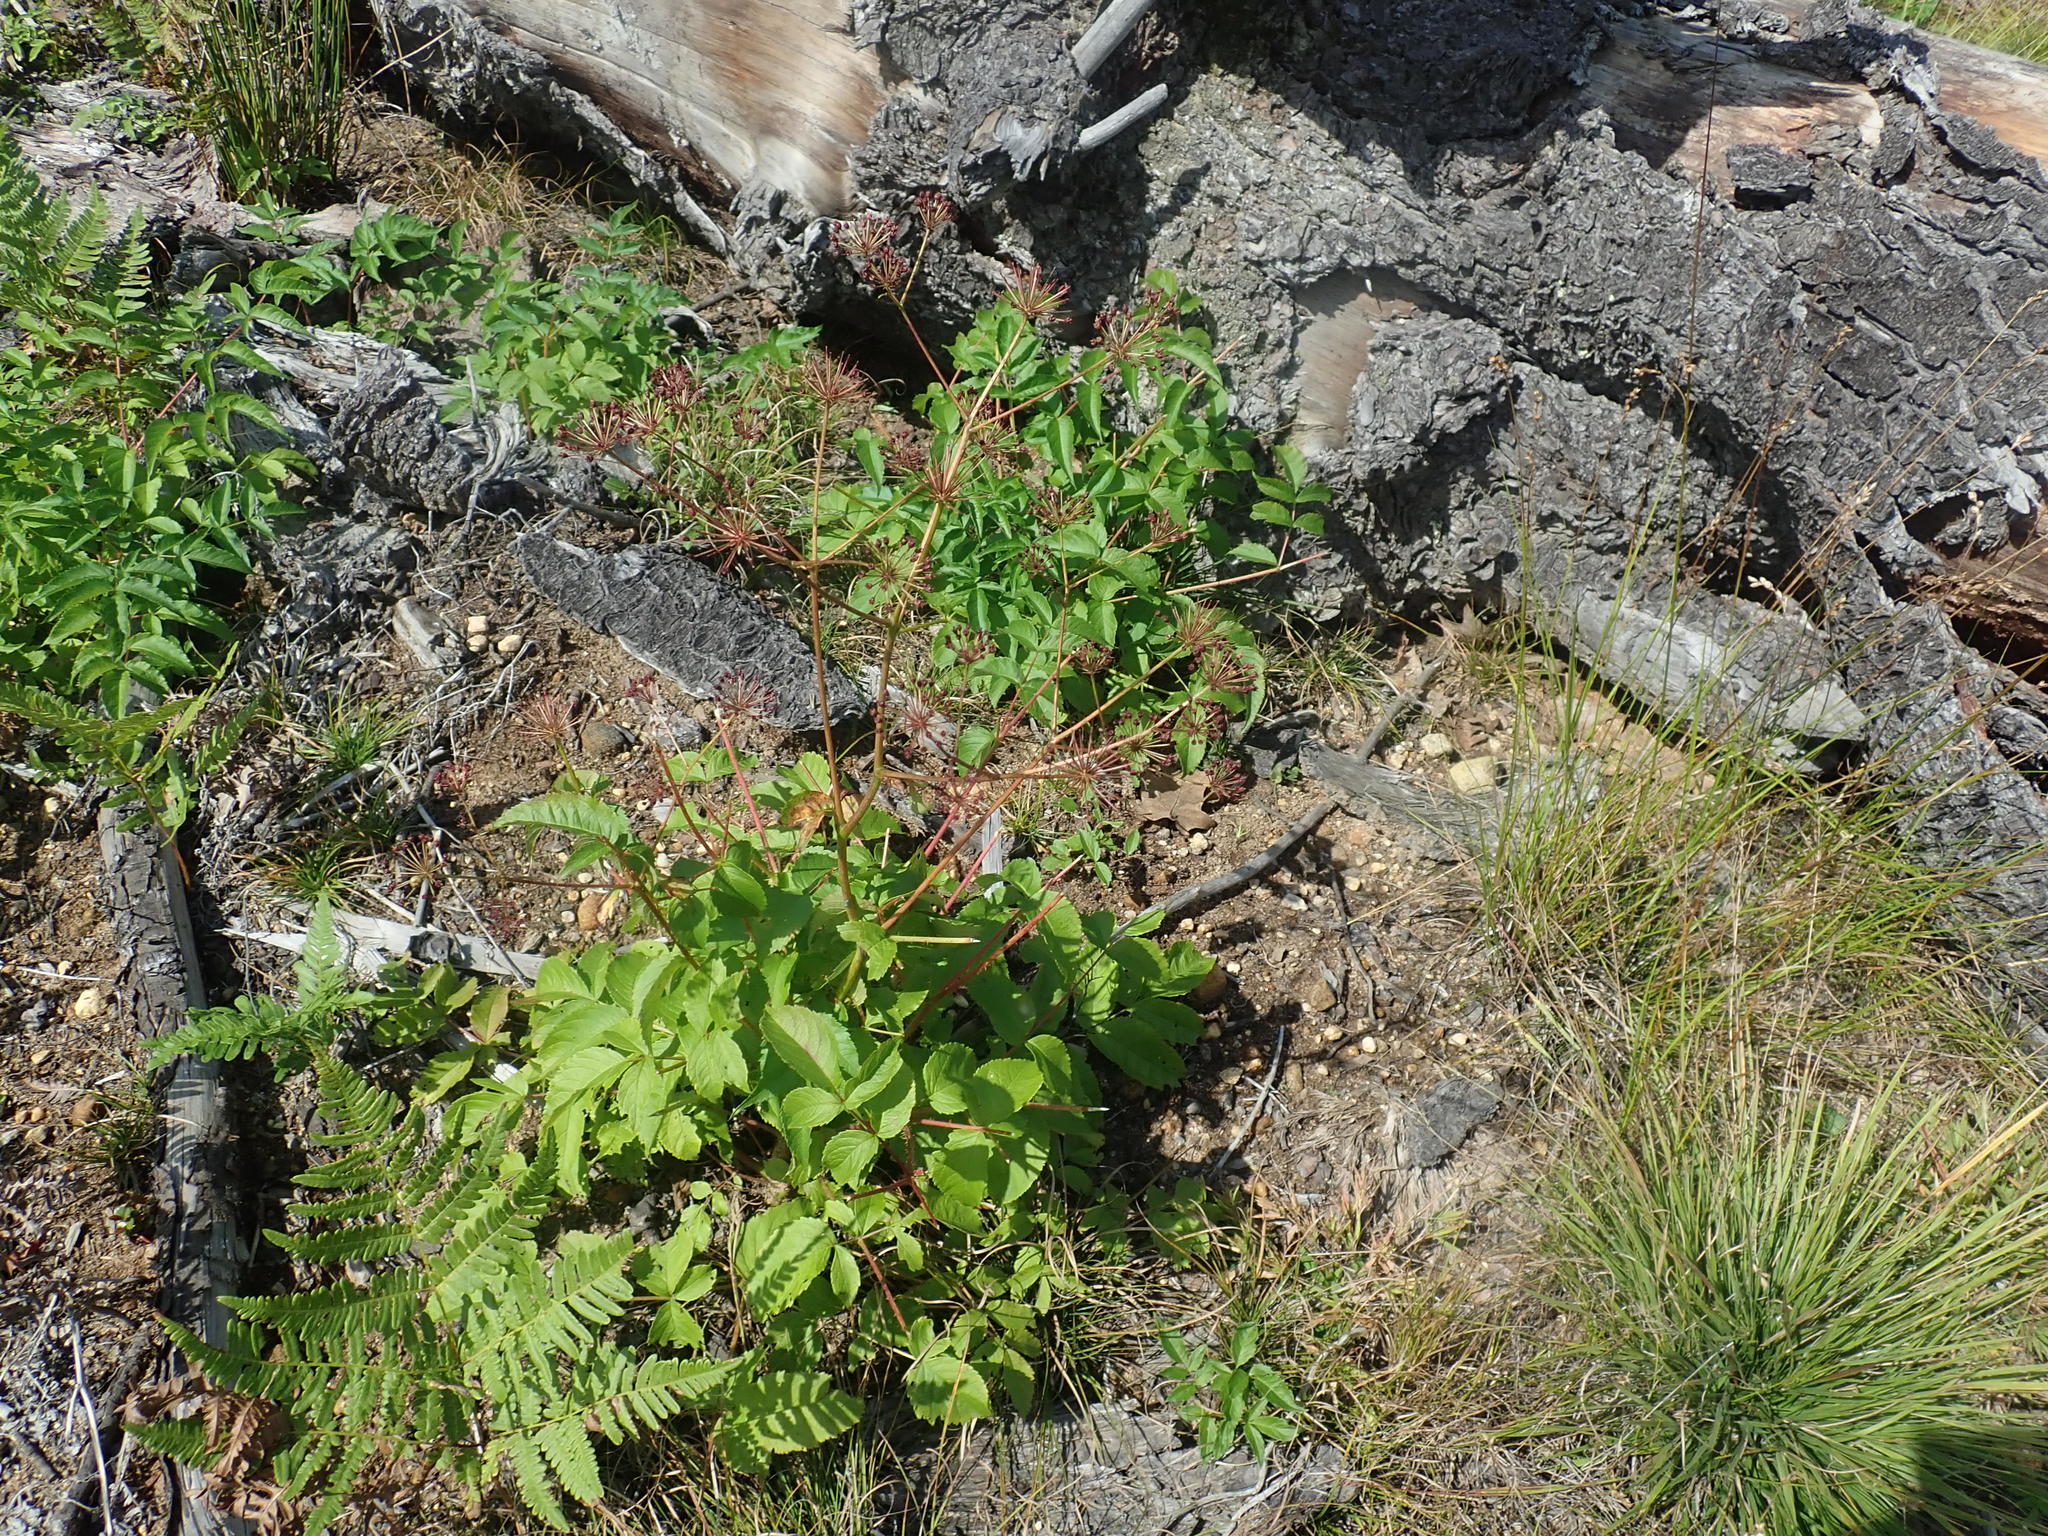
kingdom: Plantae
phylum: Tracheophyta
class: Magnoliopsida
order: Apiales
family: Araliaceae
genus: Aralia
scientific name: Aralia hispida
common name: Bristly sarsaparilla
